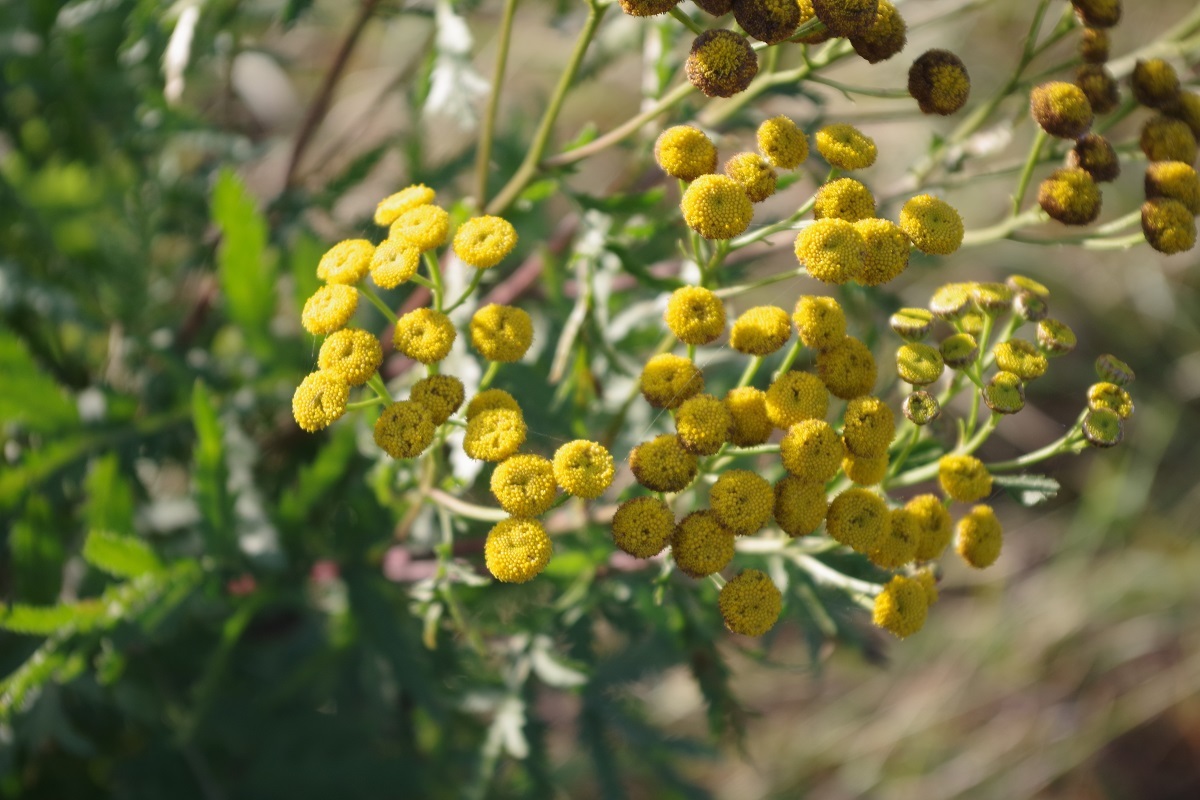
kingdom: Plantae
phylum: Tracheophyta
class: Magnoliopsida
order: Asterales
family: Asteraceae
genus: Tanacetum
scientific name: Tanacetum vulgare
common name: Common tansy
